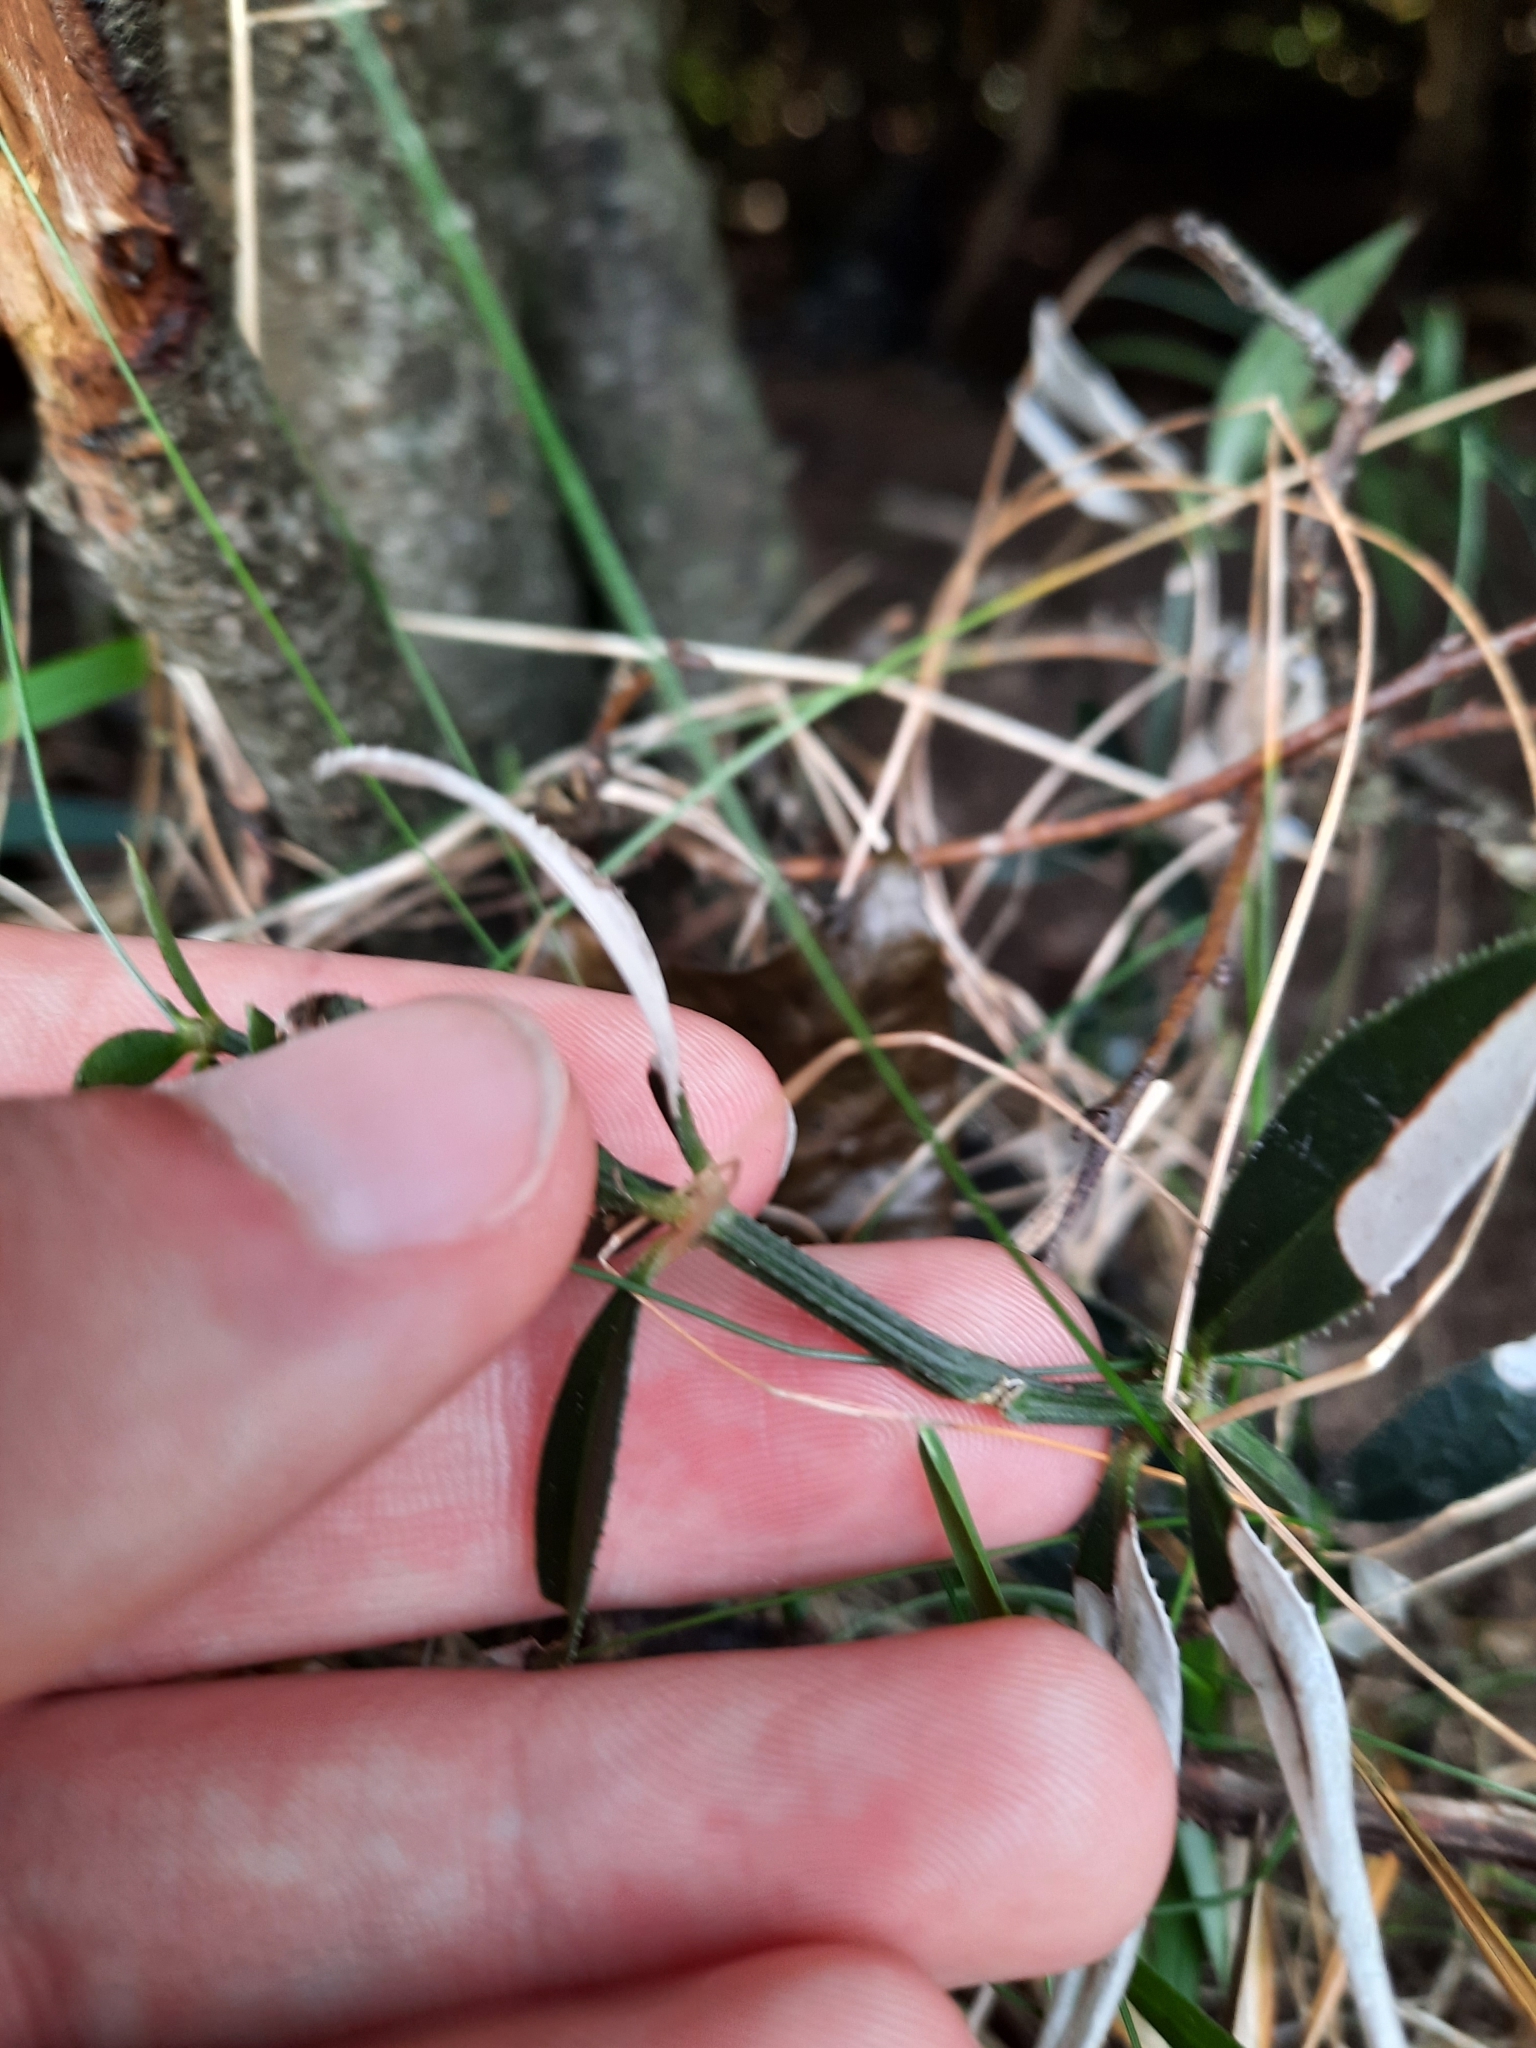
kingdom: Plantae
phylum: Tracheophyta
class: Magnoliopsida
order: Gentianales
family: Rubiaceae
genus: Rubia
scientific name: Rubia peregrina
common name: Wild madder
